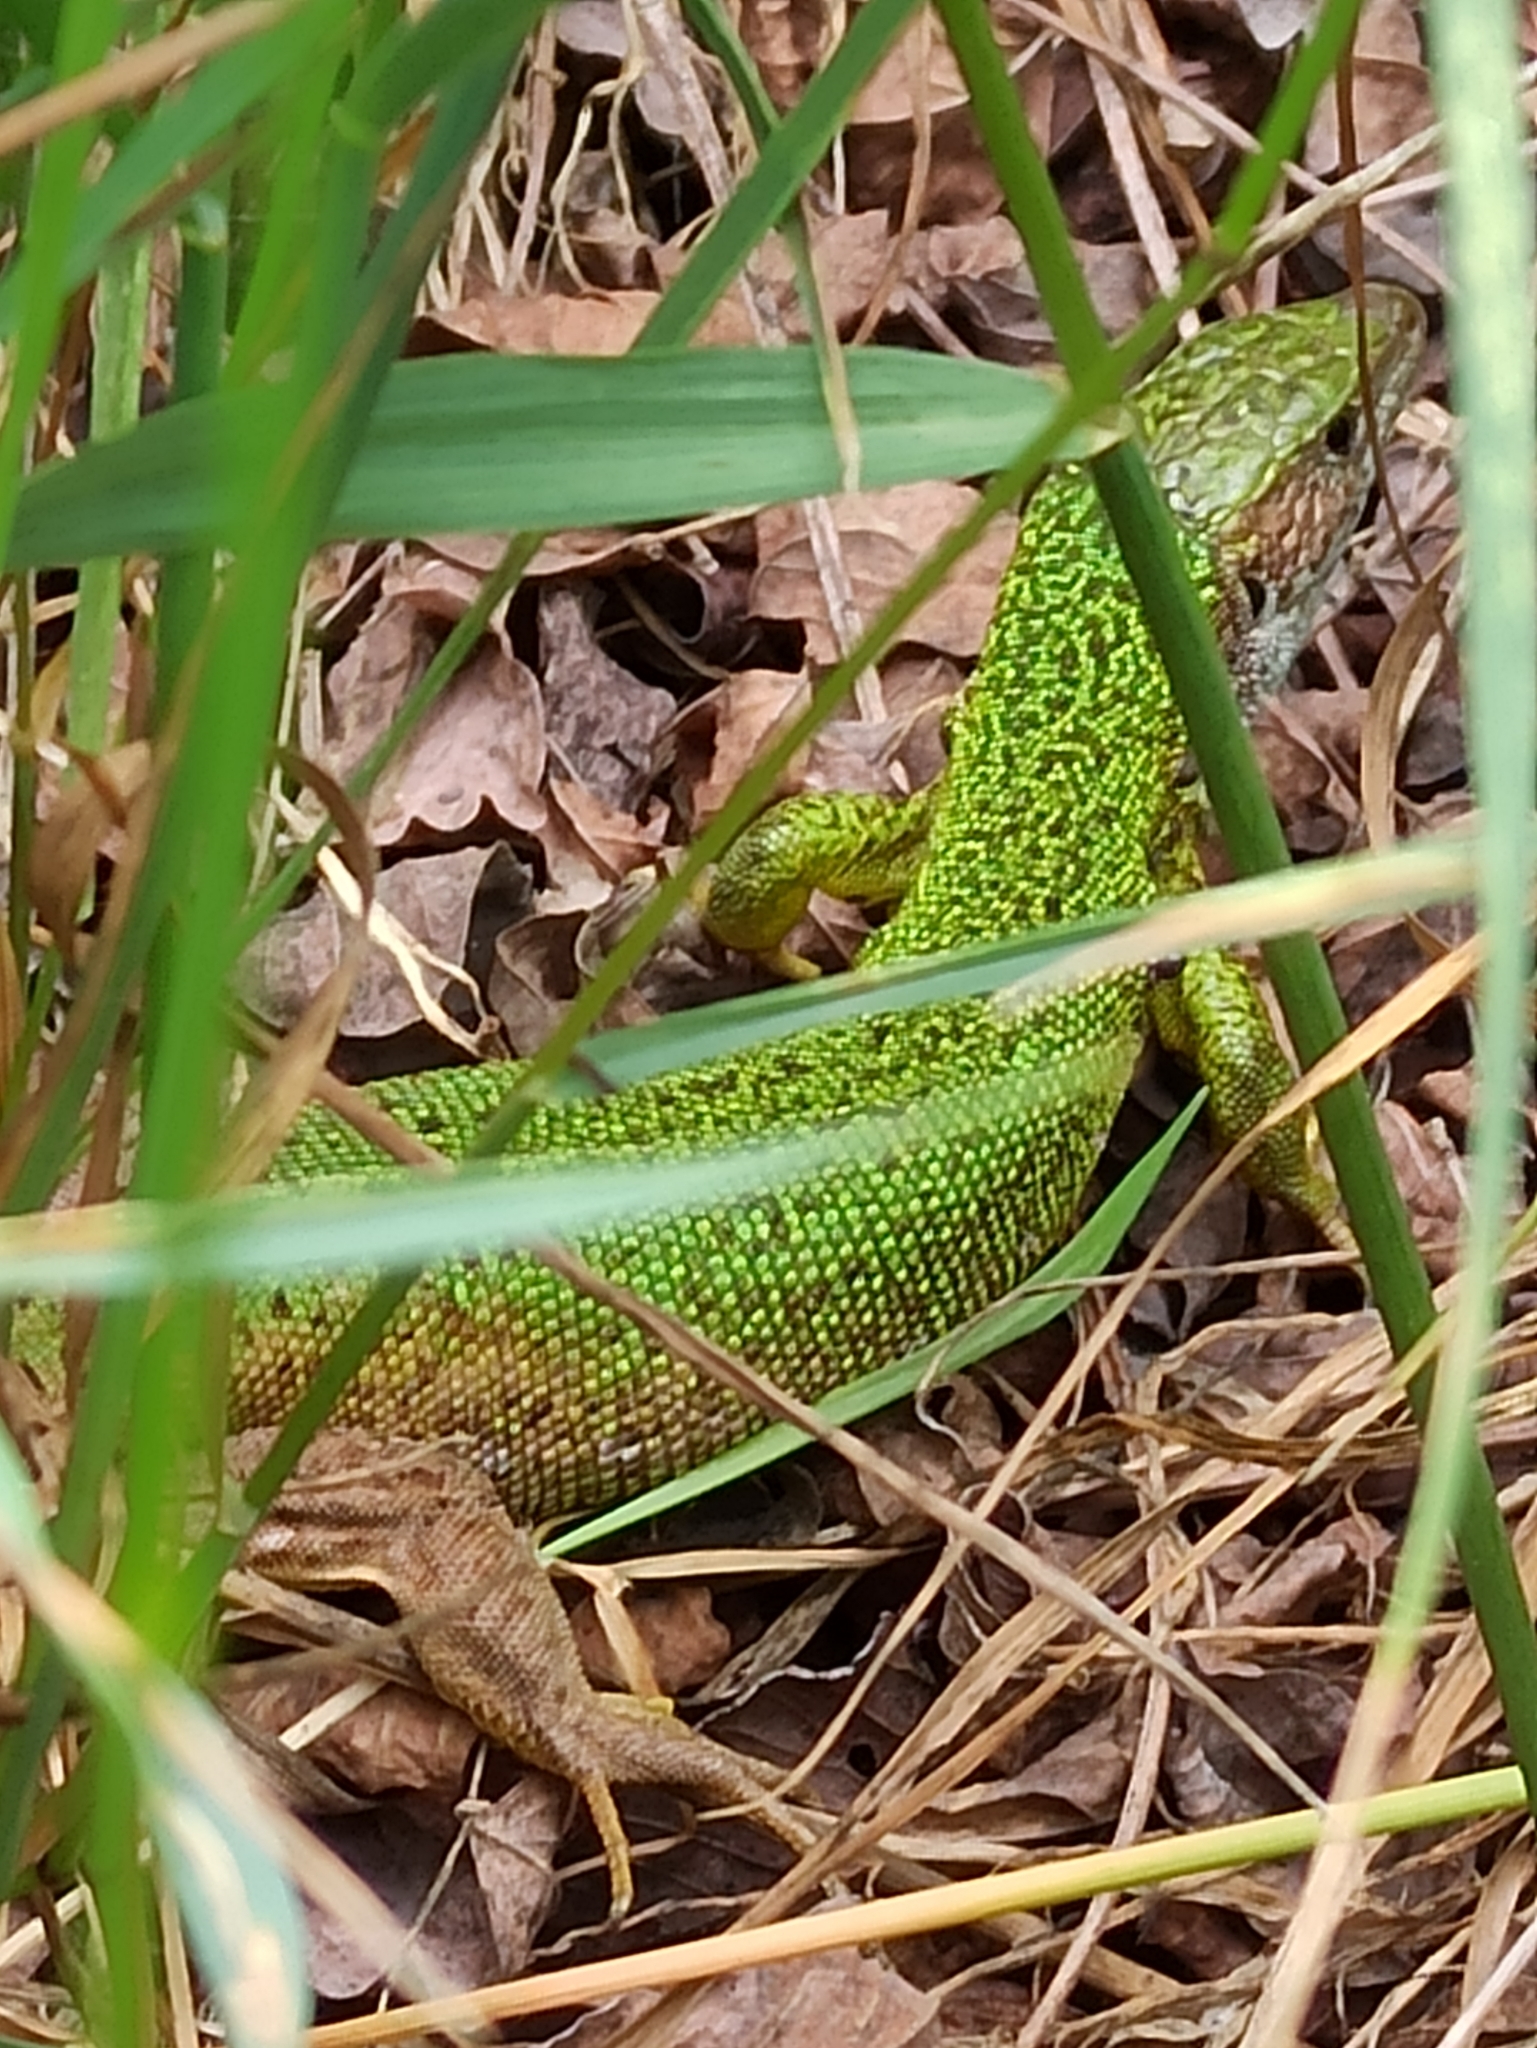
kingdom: Animalia
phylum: Chordata
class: Squamata
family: Lacertidae
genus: Lacerta
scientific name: Lacerta viridis
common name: European green lizard
